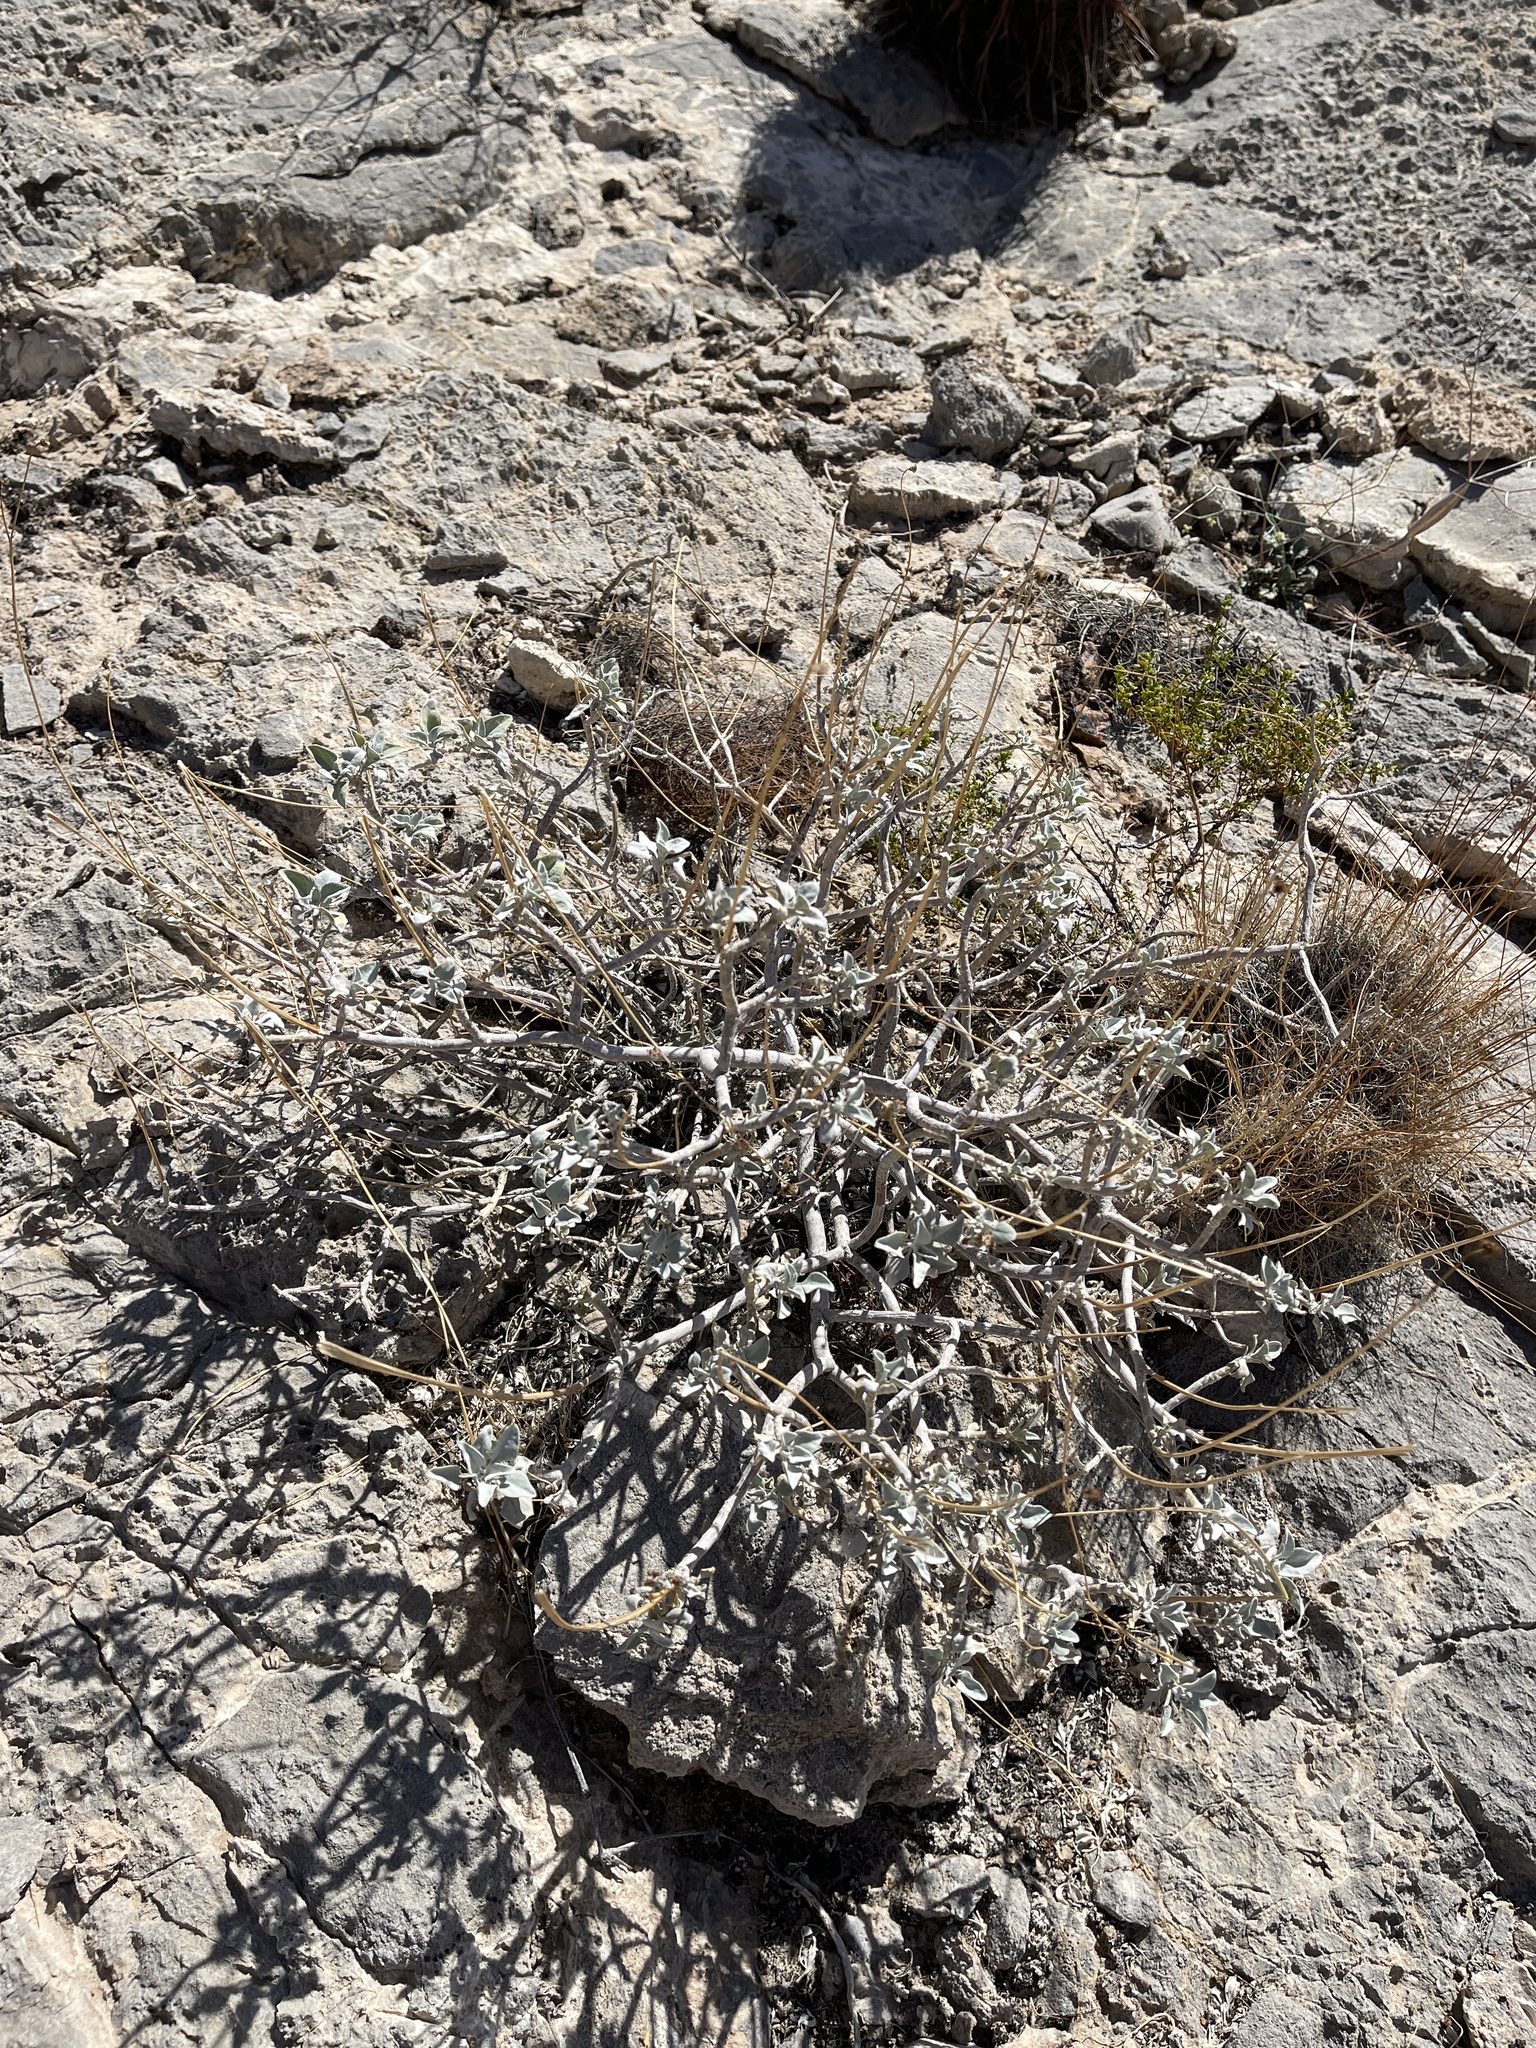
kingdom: Plantae
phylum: Tracheophyta
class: Magnoliopsida
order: Asterales
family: Asteraceae
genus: Encelia
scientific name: Encelia farinosa
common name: Brittlebush
